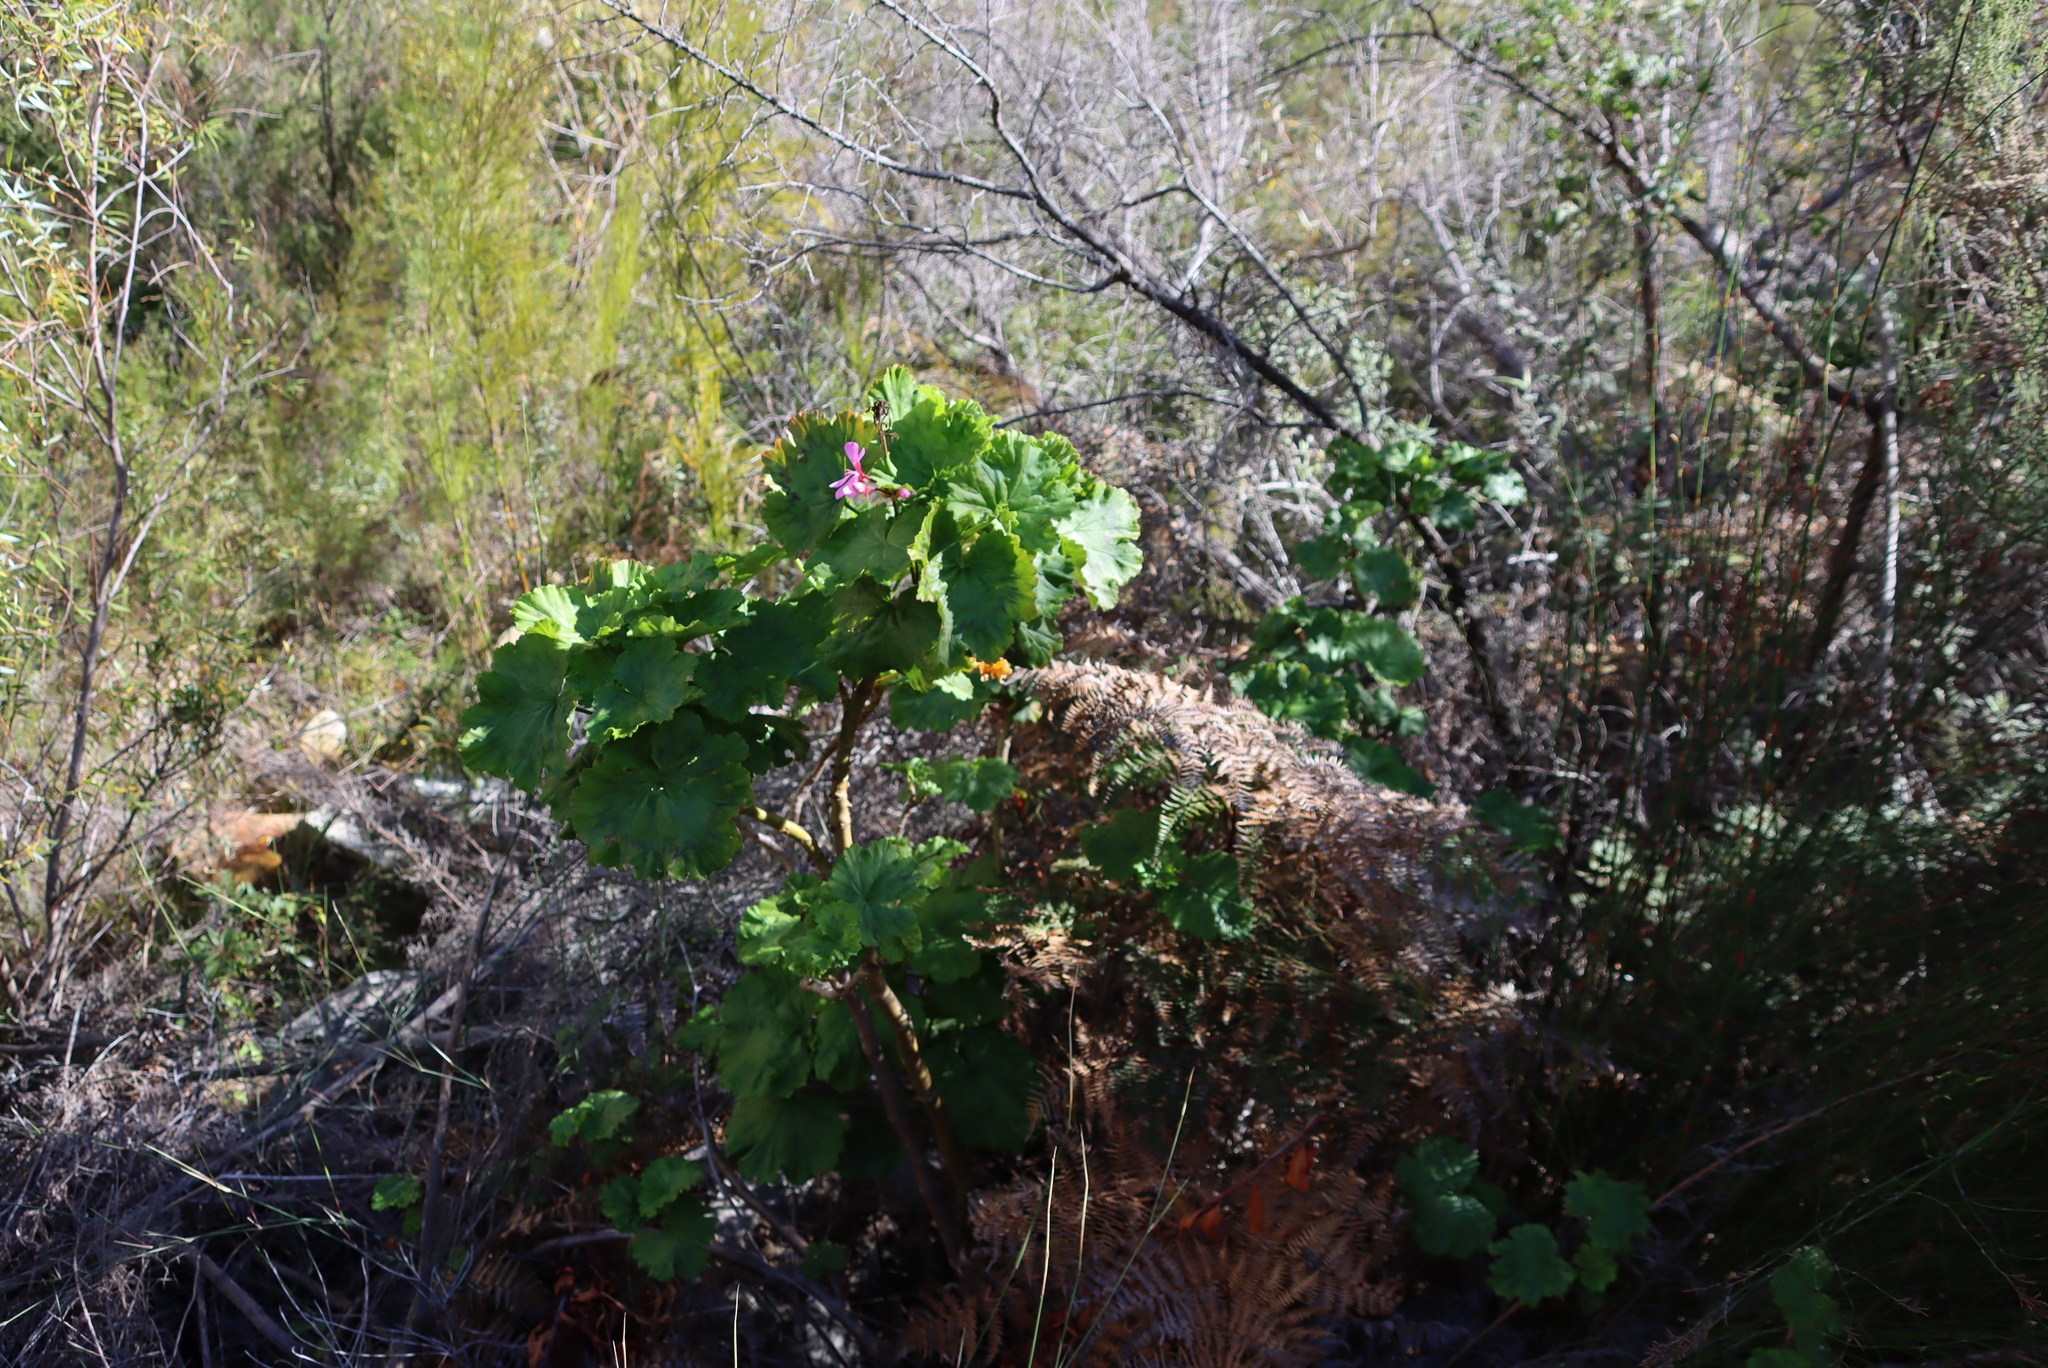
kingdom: Plantae
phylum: Tracheophyta
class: Magnoliopsida
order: Geraniales
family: Geraniaceae
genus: Pelargonium
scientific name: Pelargonium zonale
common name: Horseshoe geranium
